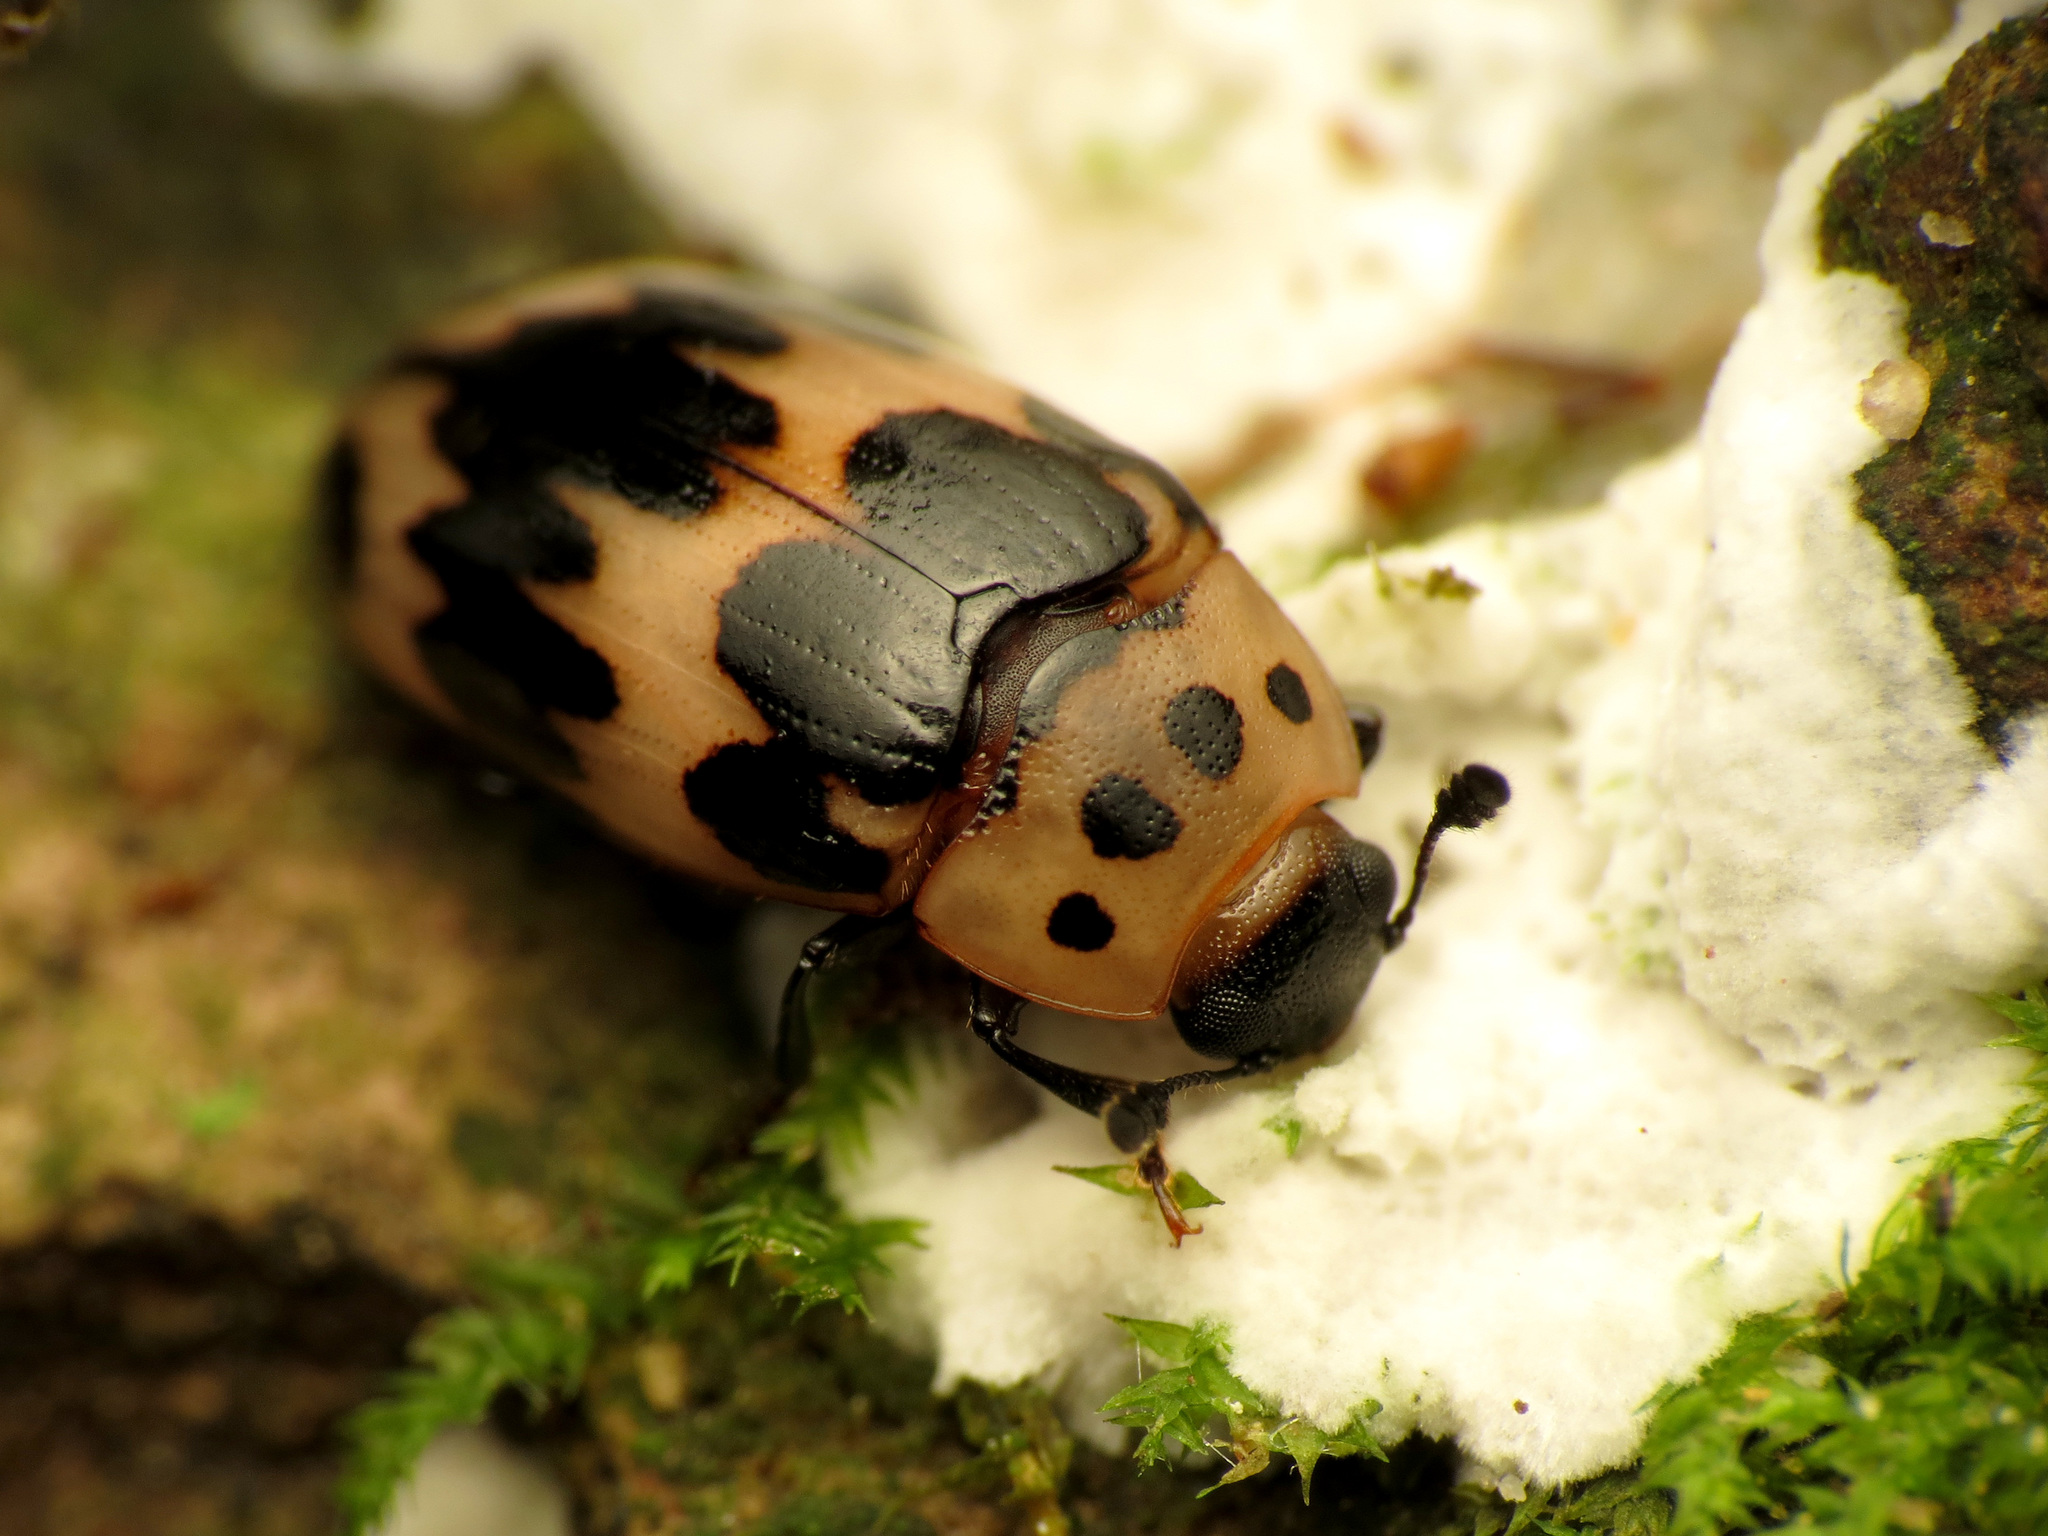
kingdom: Animalia
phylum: Arthropoda
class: Insecta
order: Coleoptera
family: Erotylidae
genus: Ischyrus
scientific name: Ischyrus quadripunctatus
